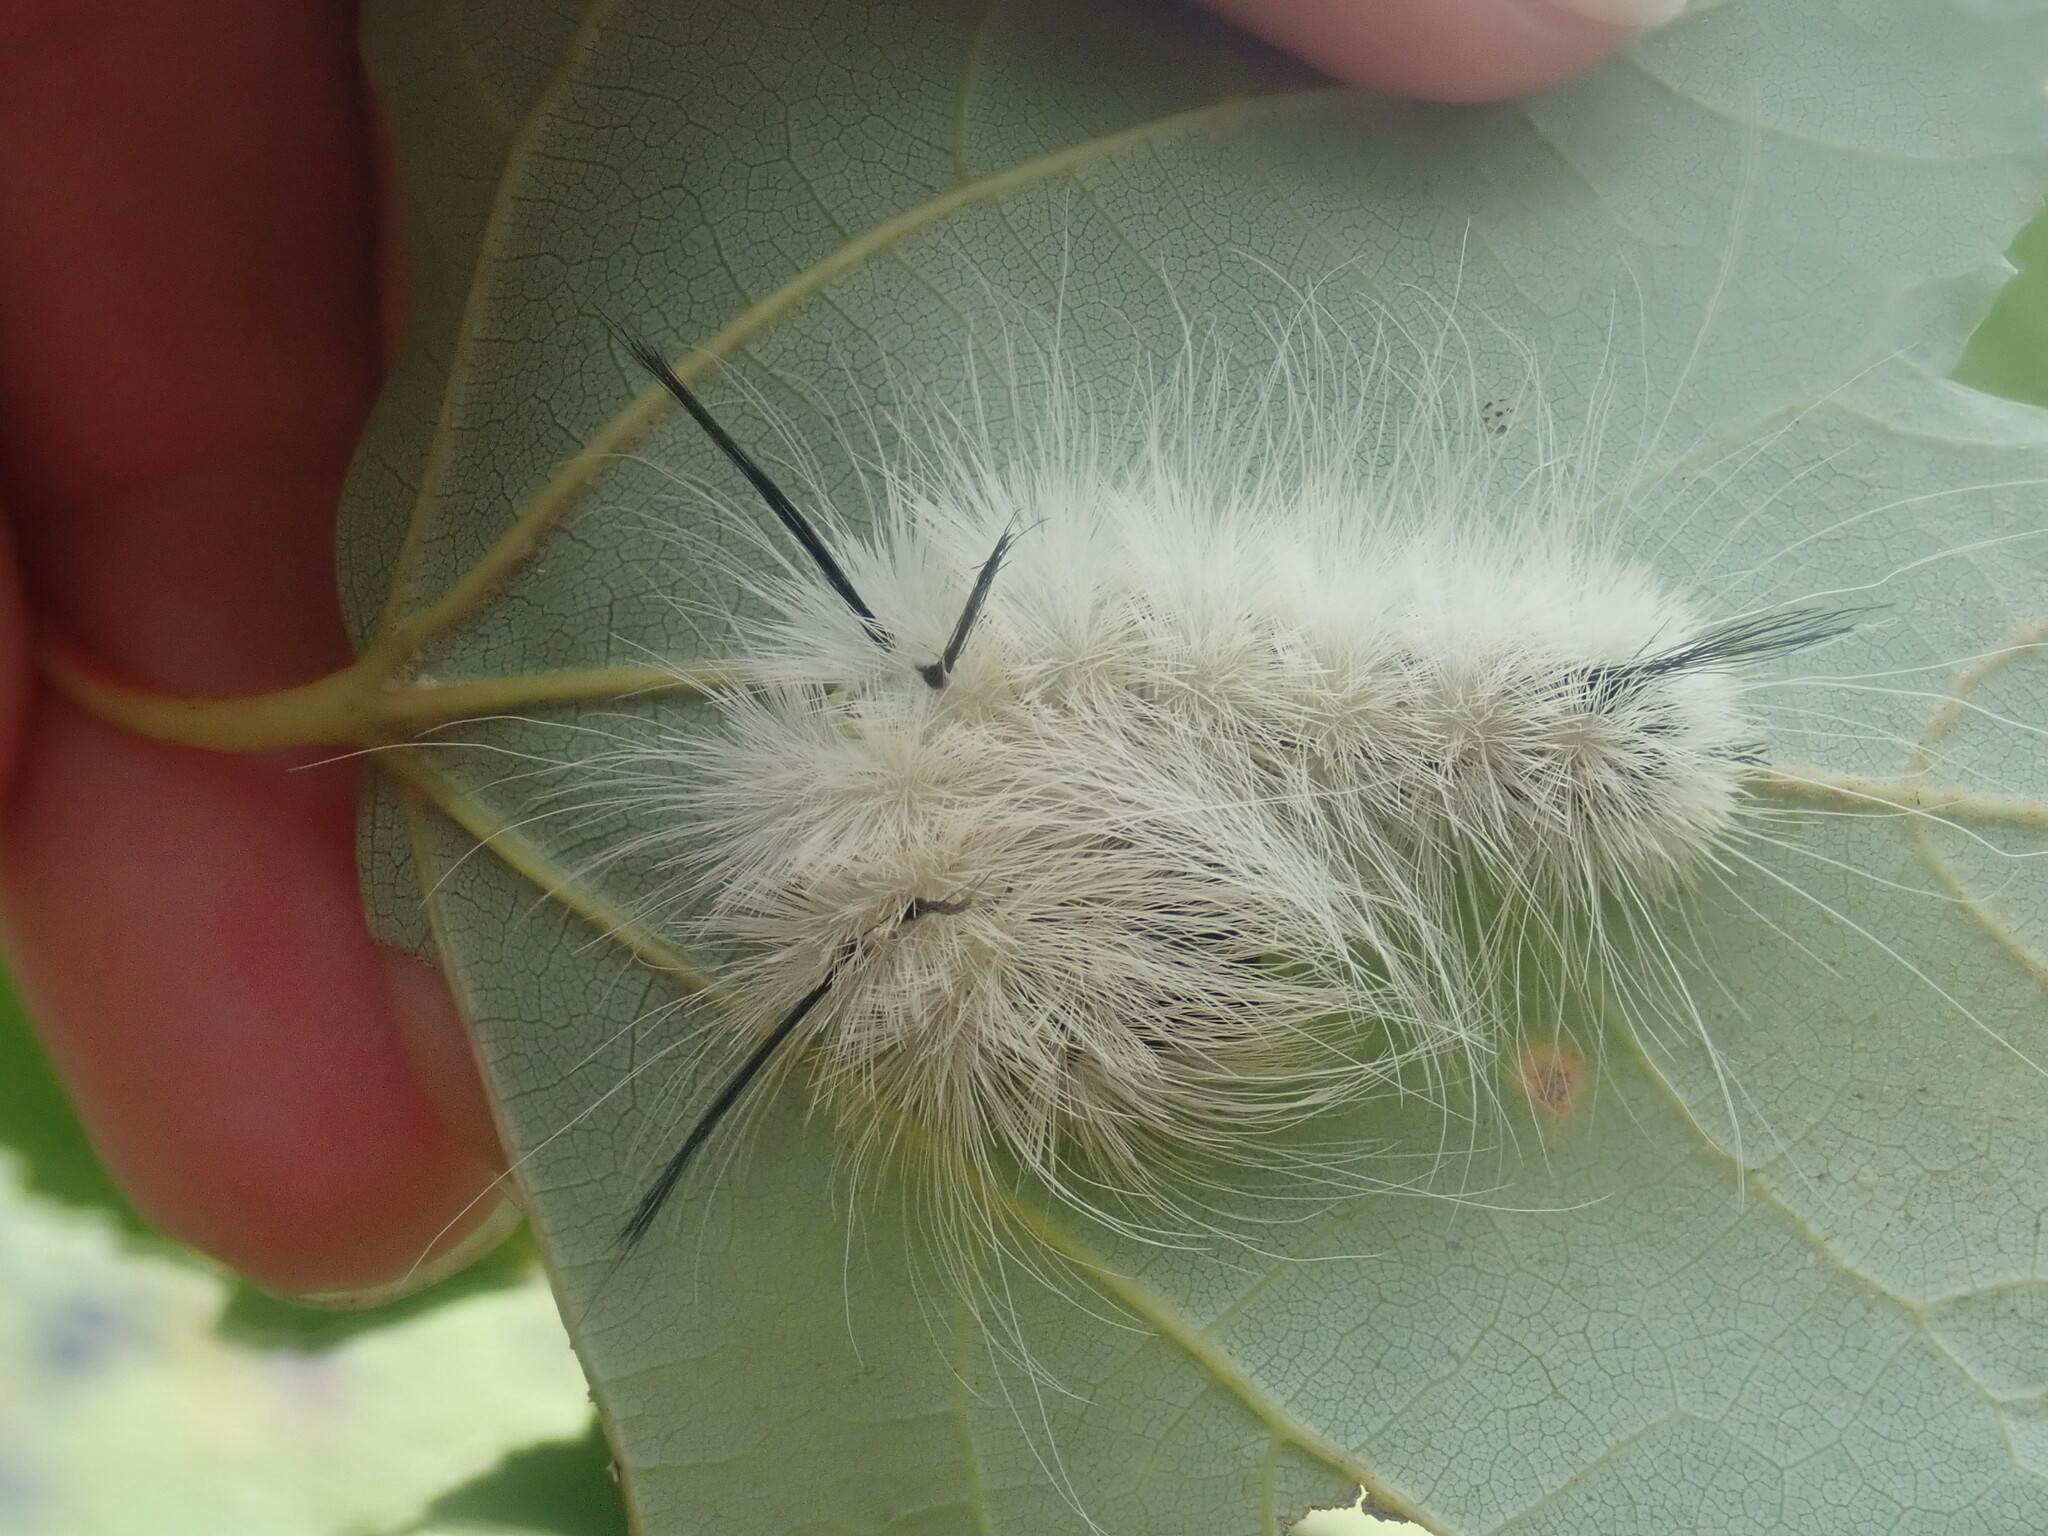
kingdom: Animalia
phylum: Arthropoda
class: Insecta
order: Lepidoptera
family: Noctuidae
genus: Acronicta
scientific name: Acronicta americana
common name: American dagger
